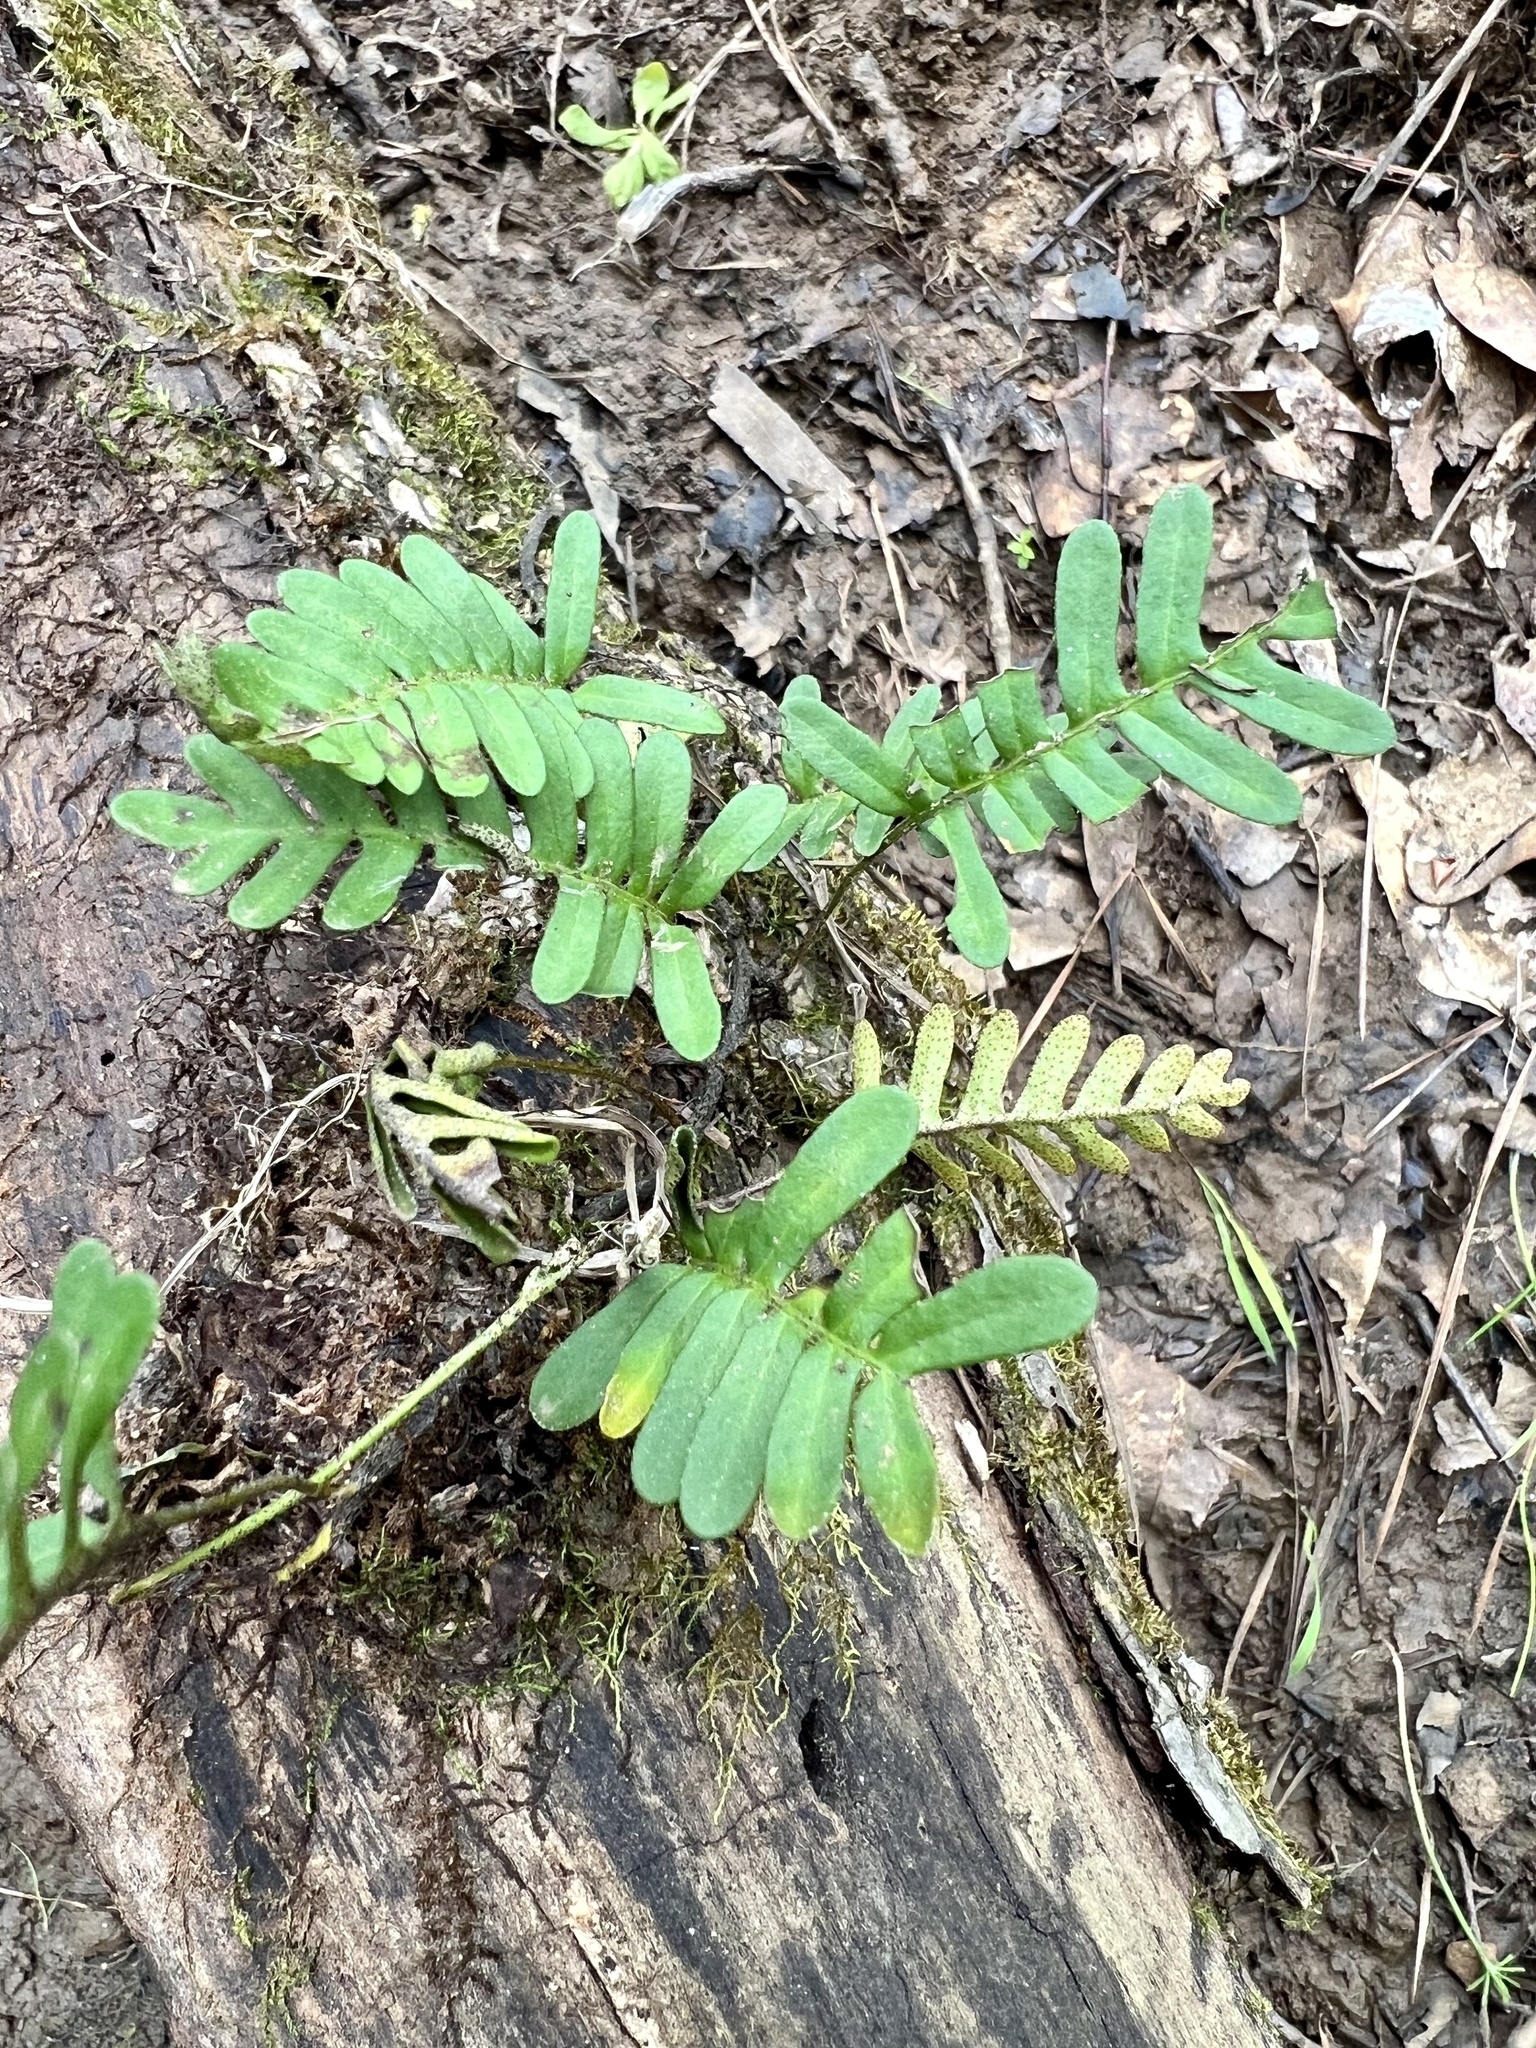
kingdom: Plantae
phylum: Tracheophyta
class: Polypodiopsida
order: Polypodiales
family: Polypodiaceae
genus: Pleopeltis
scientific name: Pleopeltis michauxiana
